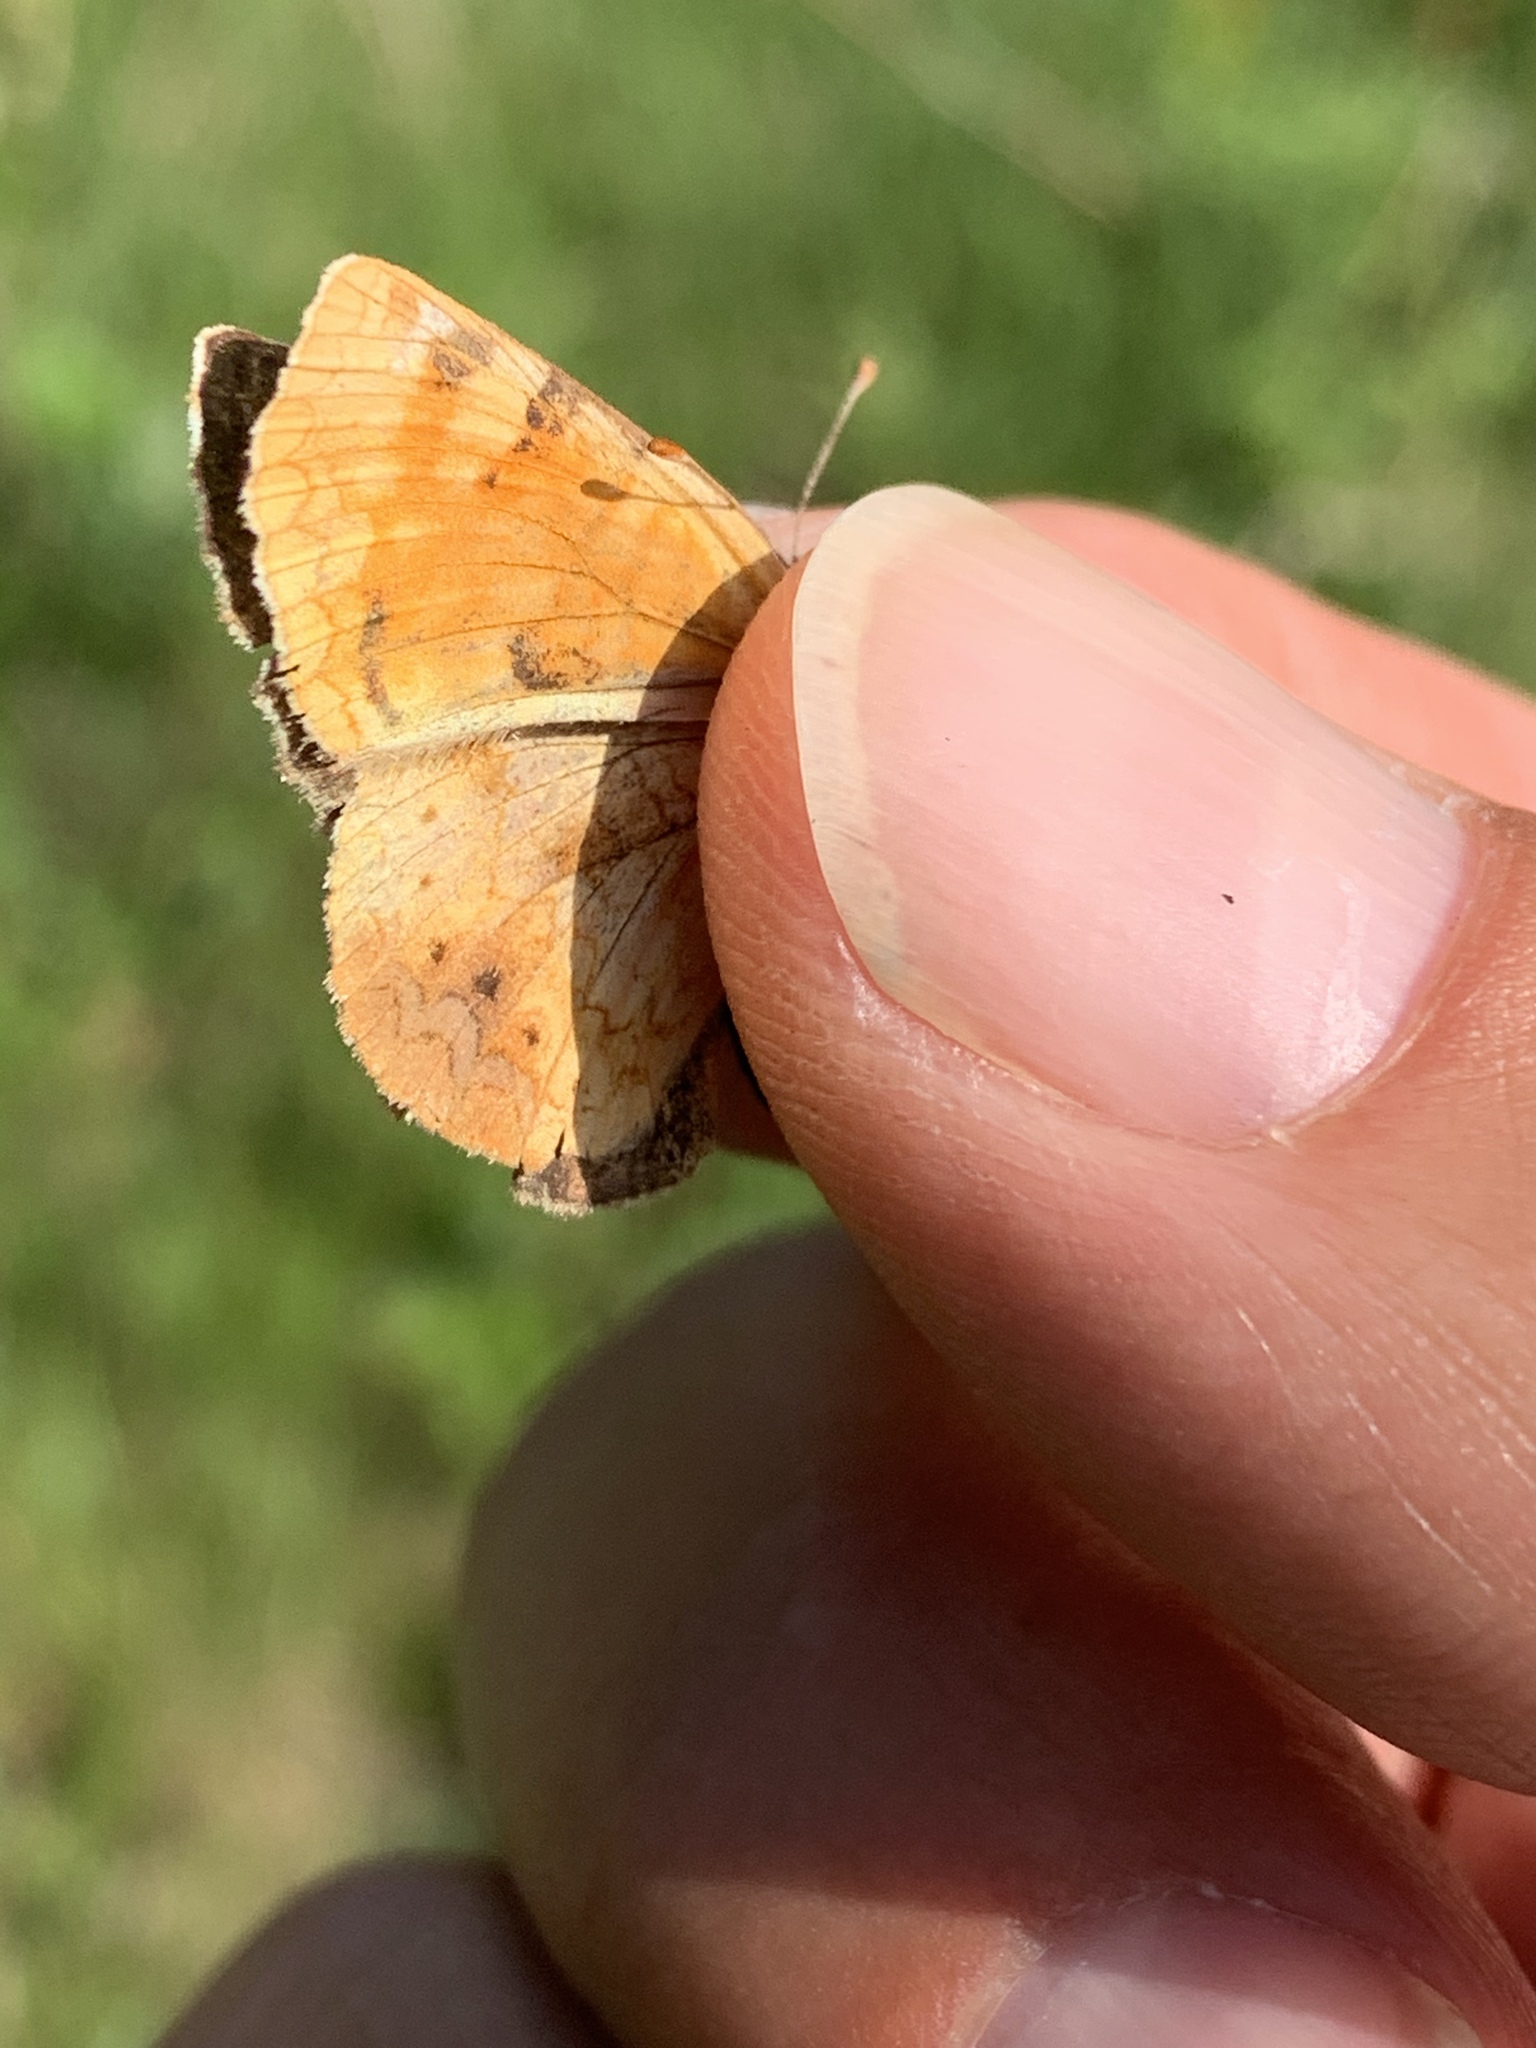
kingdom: Animalia
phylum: Arthropoda
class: Insecta
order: Lepidoptera
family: Nymphalidae
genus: Phyciodes
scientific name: Phyciodes tharos
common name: Pearl crescent
